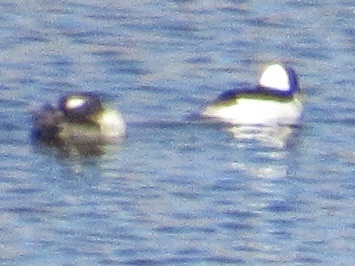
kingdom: Animalia
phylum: Chordata
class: Aves
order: Anseriformes
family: Anatidae
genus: Bucephala
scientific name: Bucephala albeola
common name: Bufflehead
